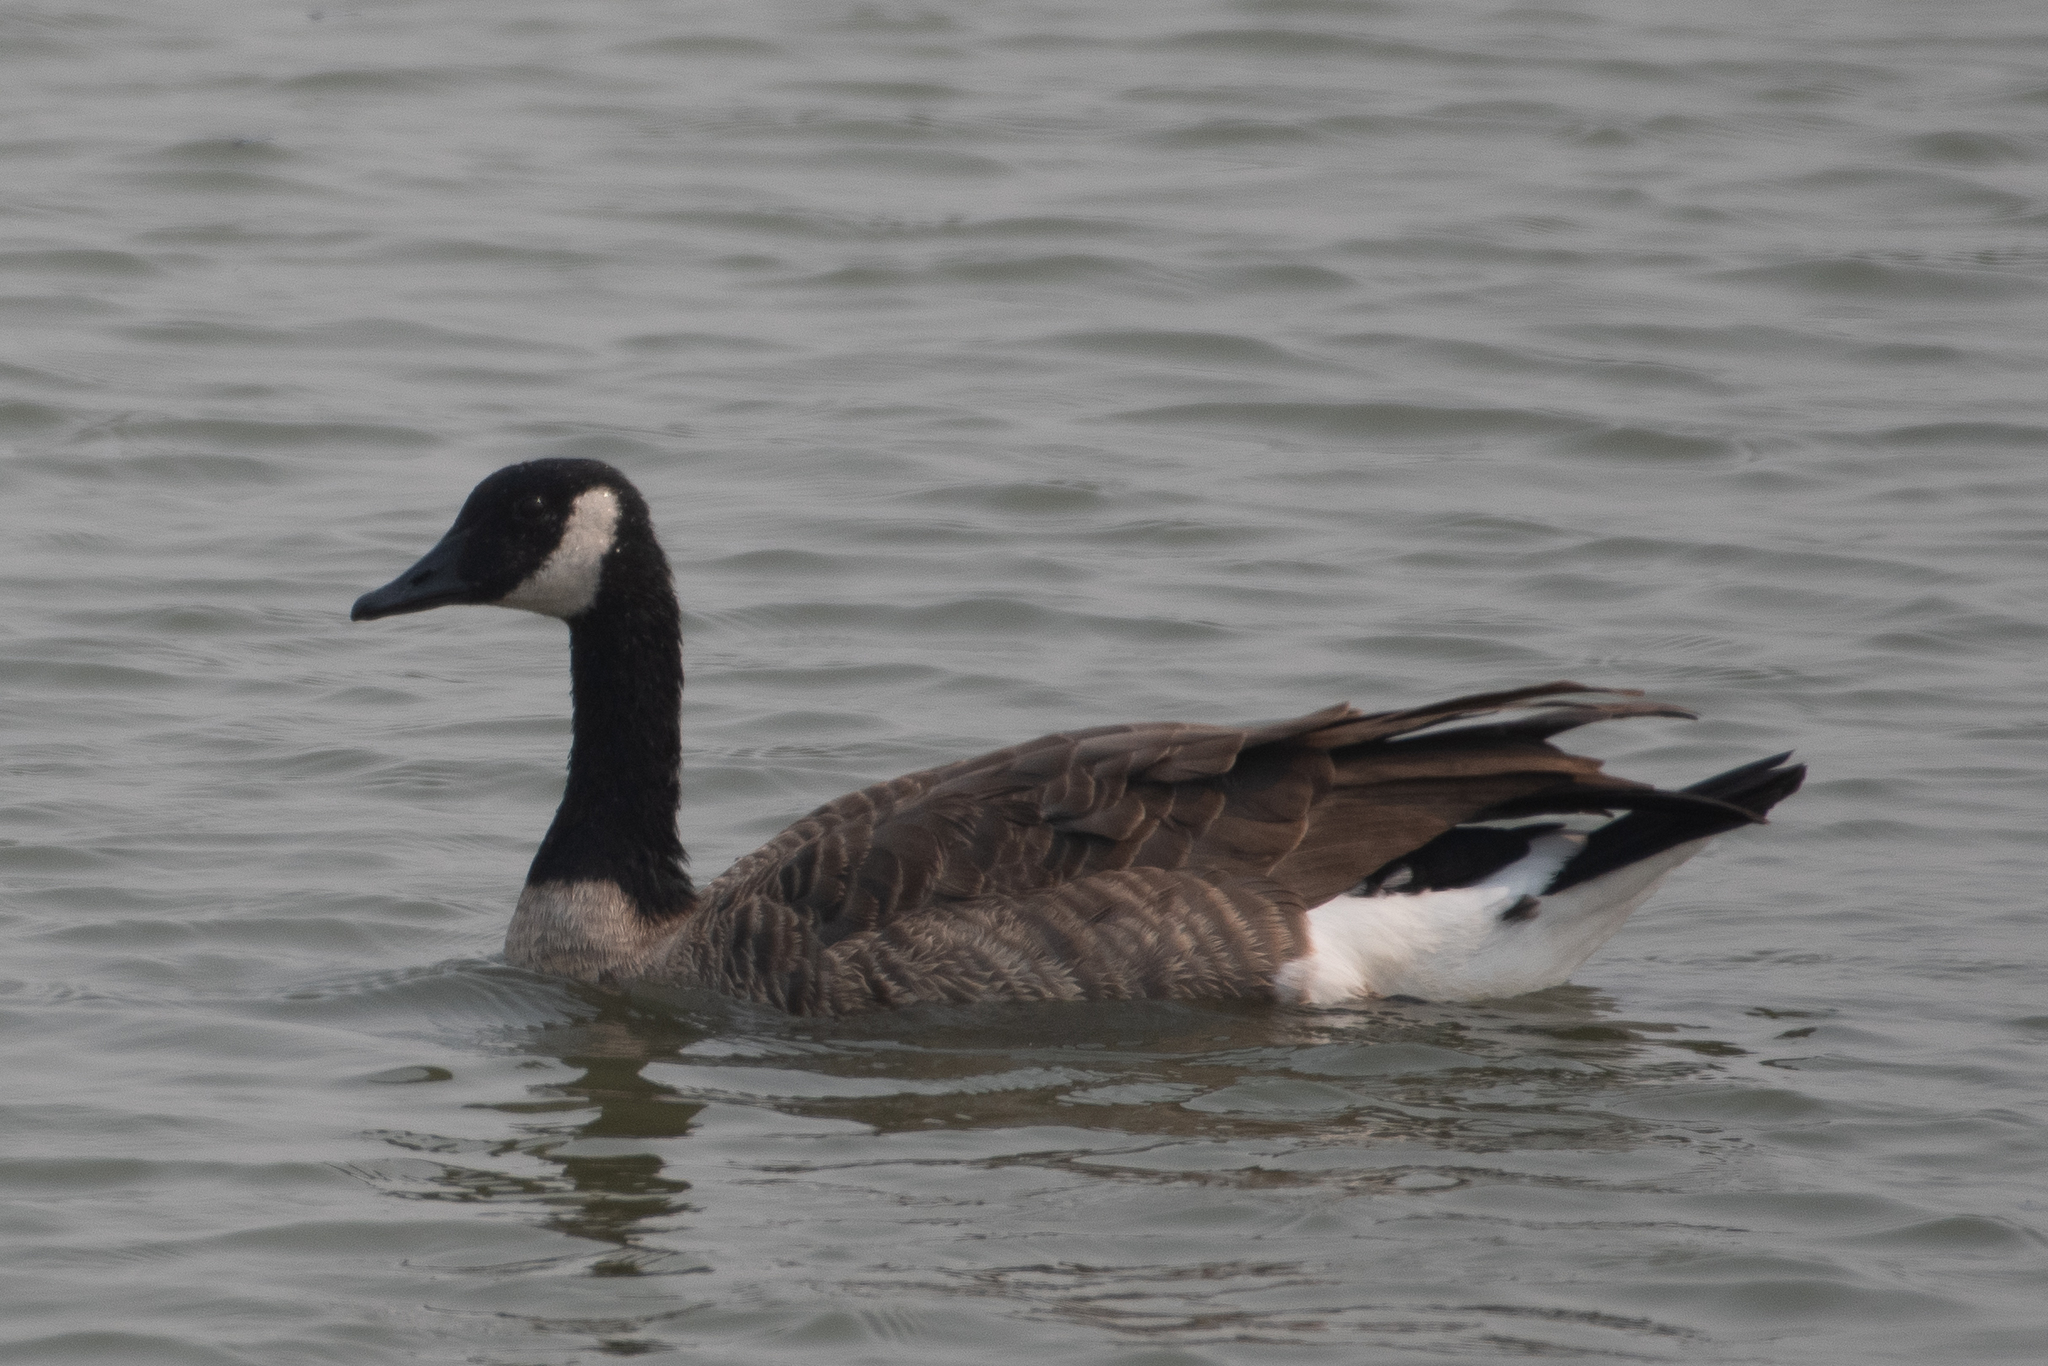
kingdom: Animalia
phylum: Chordata
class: Aves
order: Anseriformes
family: Anatidae
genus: Branta
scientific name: Branta canadensis
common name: Canada goose
